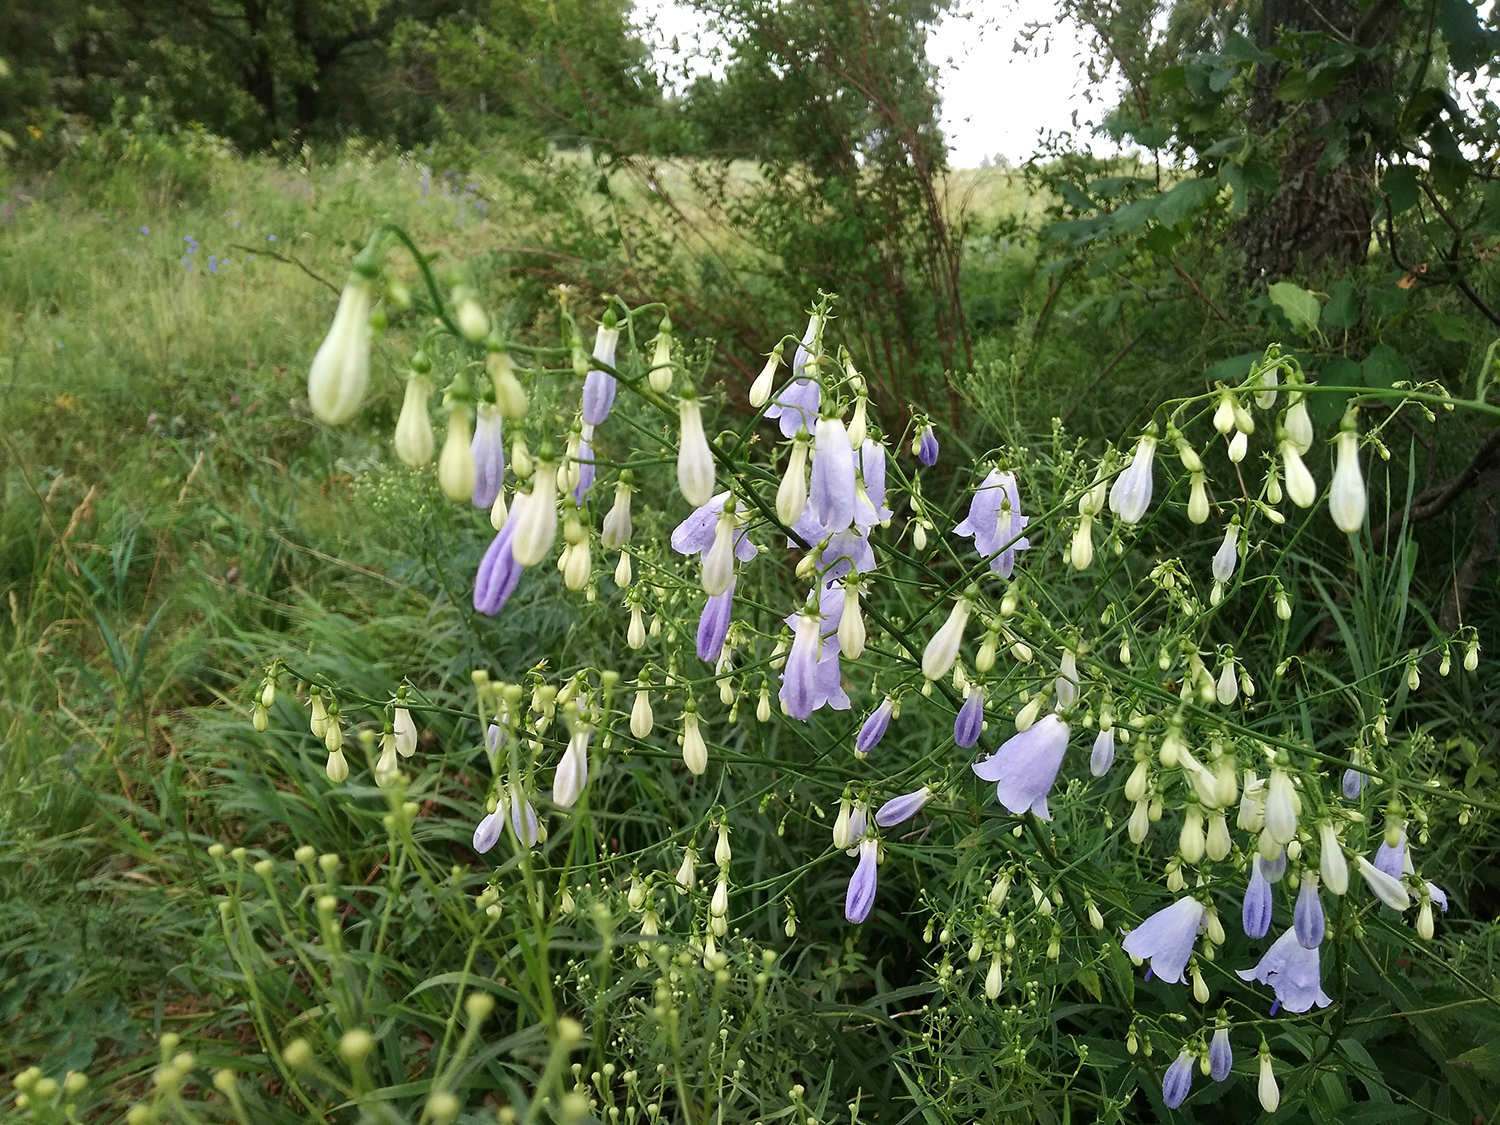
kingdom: Plantae
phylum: Tracheophyta
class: Magnoliopsida
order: Asterales
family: Campanulaceae
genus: Adenophora
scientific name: Adenophora liliifolia
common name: Lilyleaf ladybells
